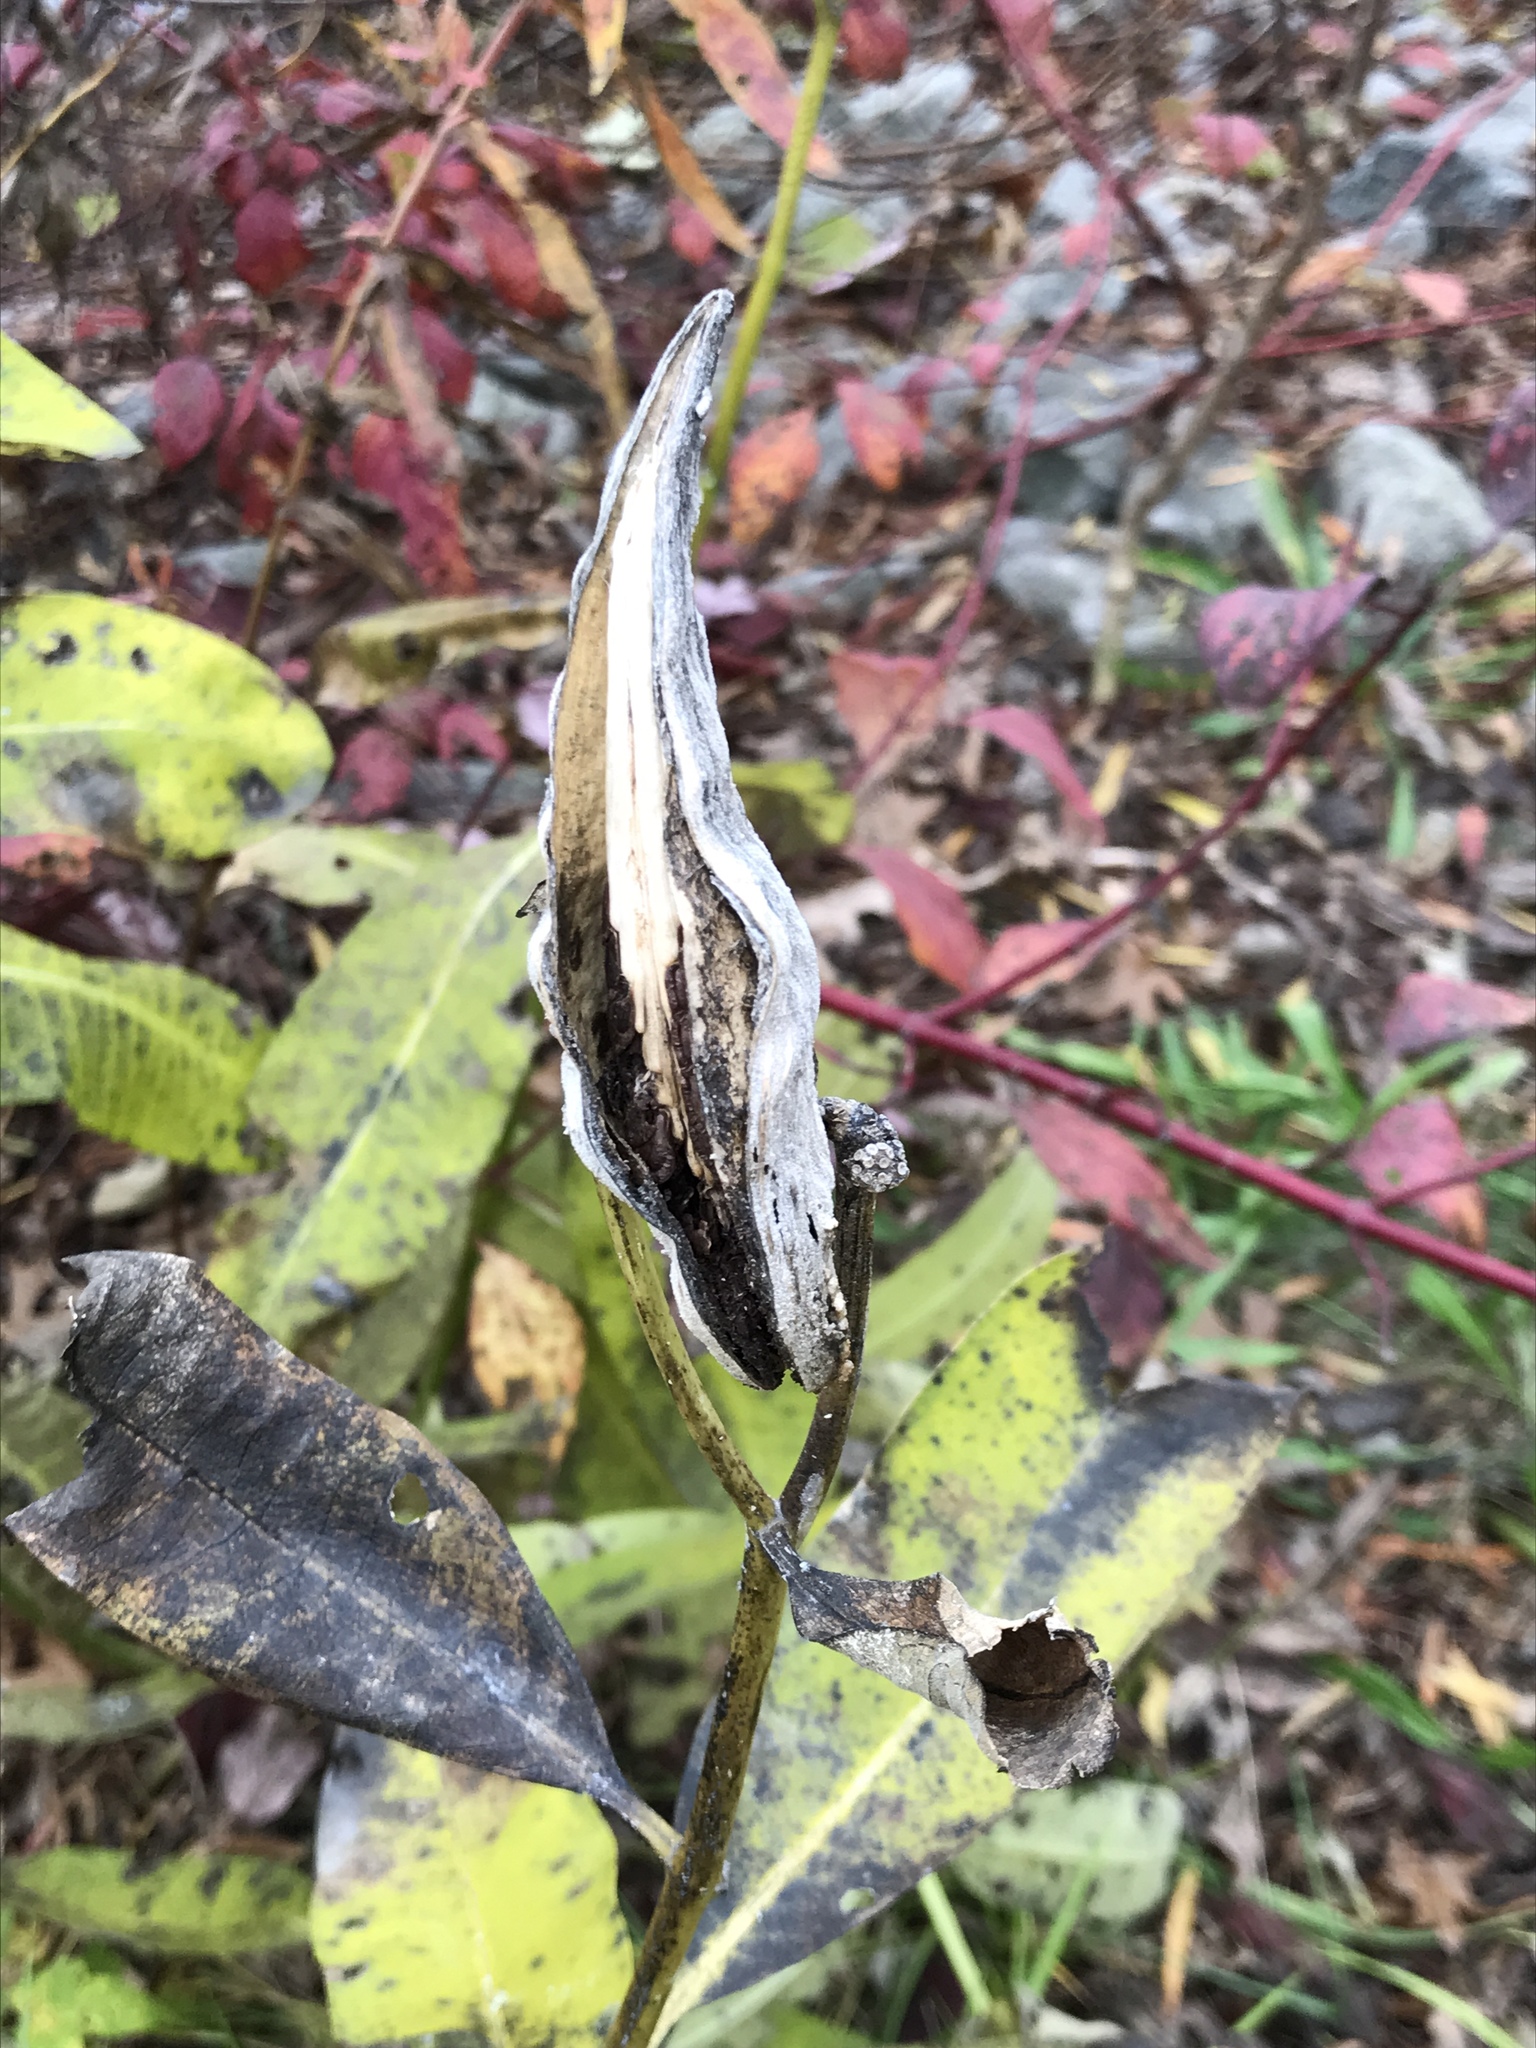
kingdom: Plantae
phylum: Tracheophyta
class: Magnoliopsida
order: Gentianales
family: Apocynaceae
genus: Asclepias
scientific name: Asclepias syriaca
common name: Common milkweed
